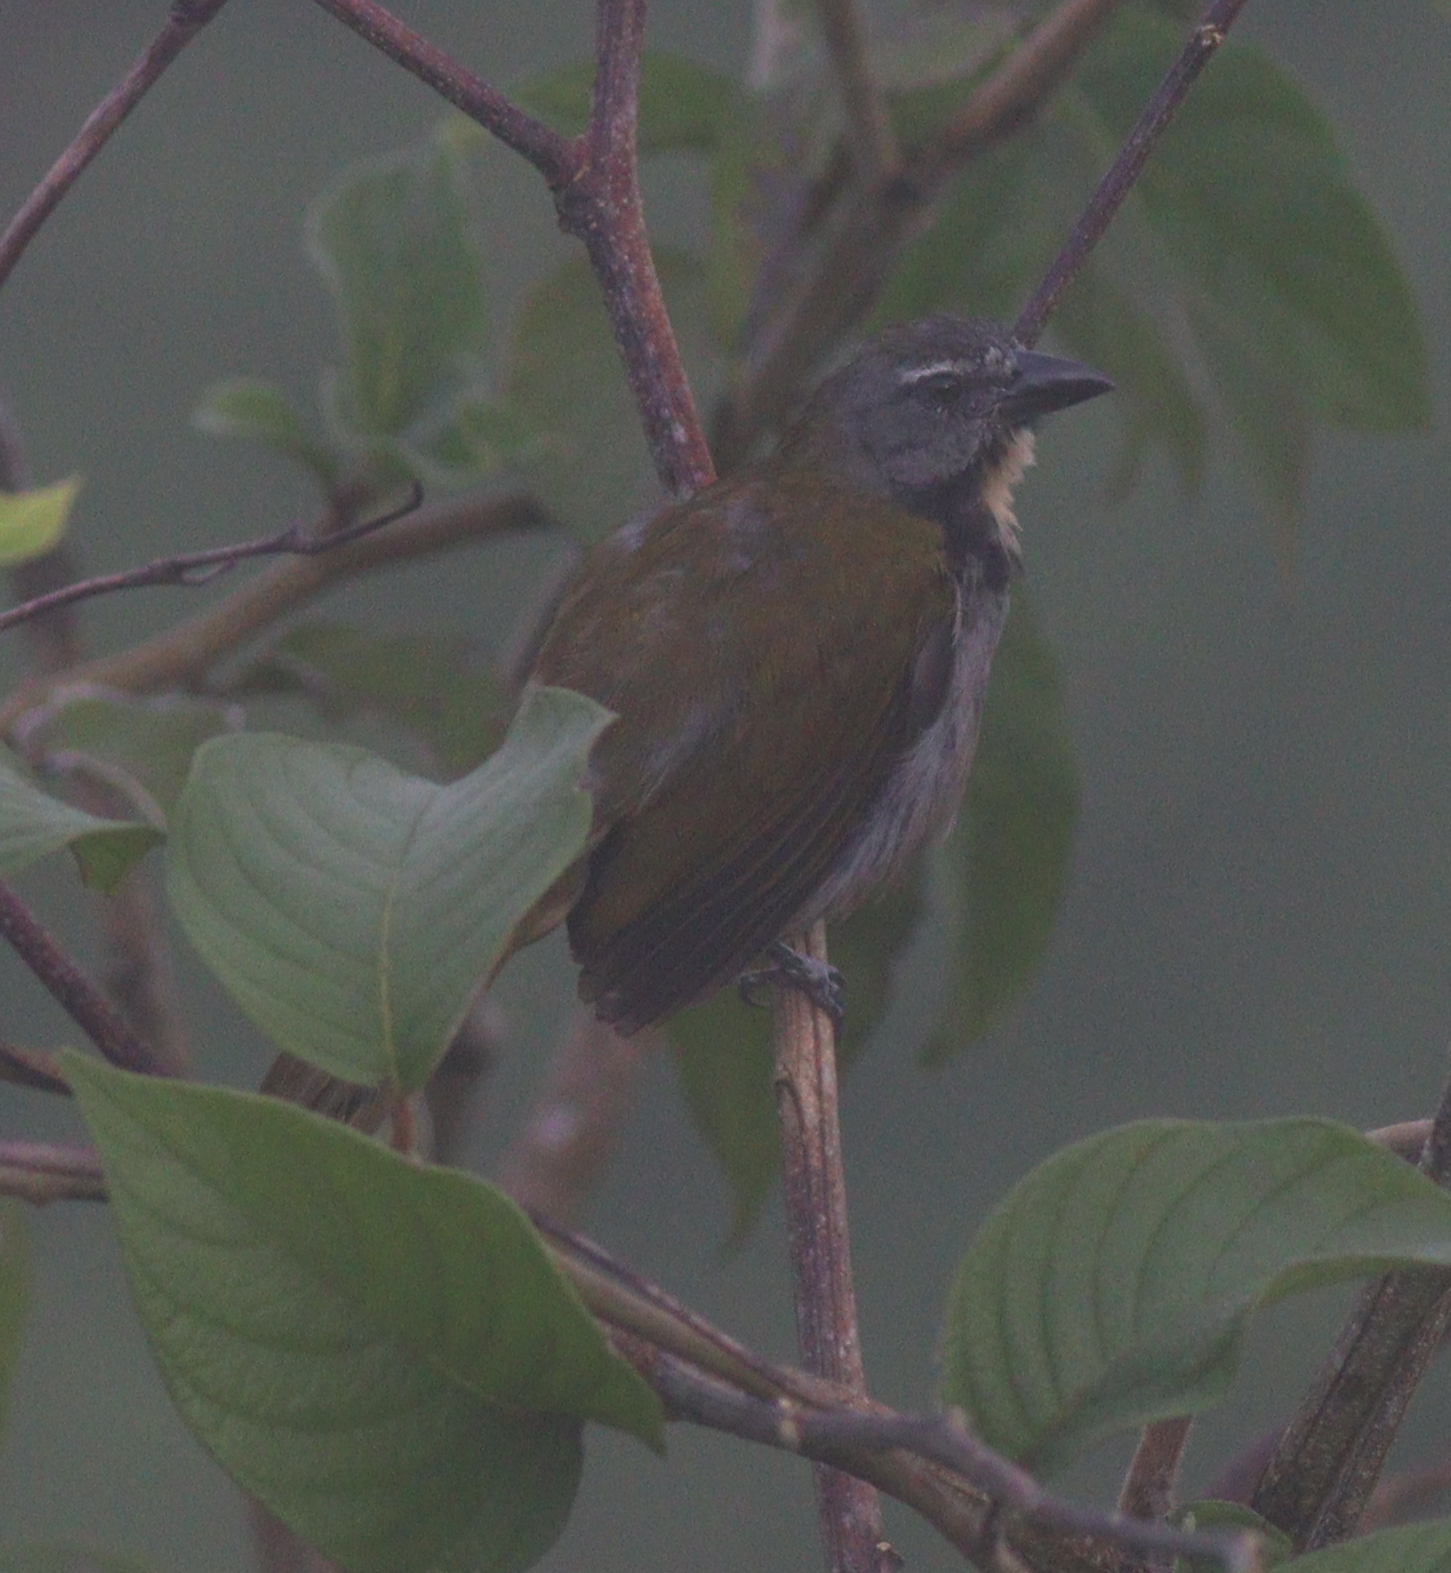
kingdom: Animalia
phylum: Chordata
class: Aves
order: Passeriformes
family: Thraupidae
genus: Saltator
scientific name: Saltator maximus
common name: Buff-throated saltator
